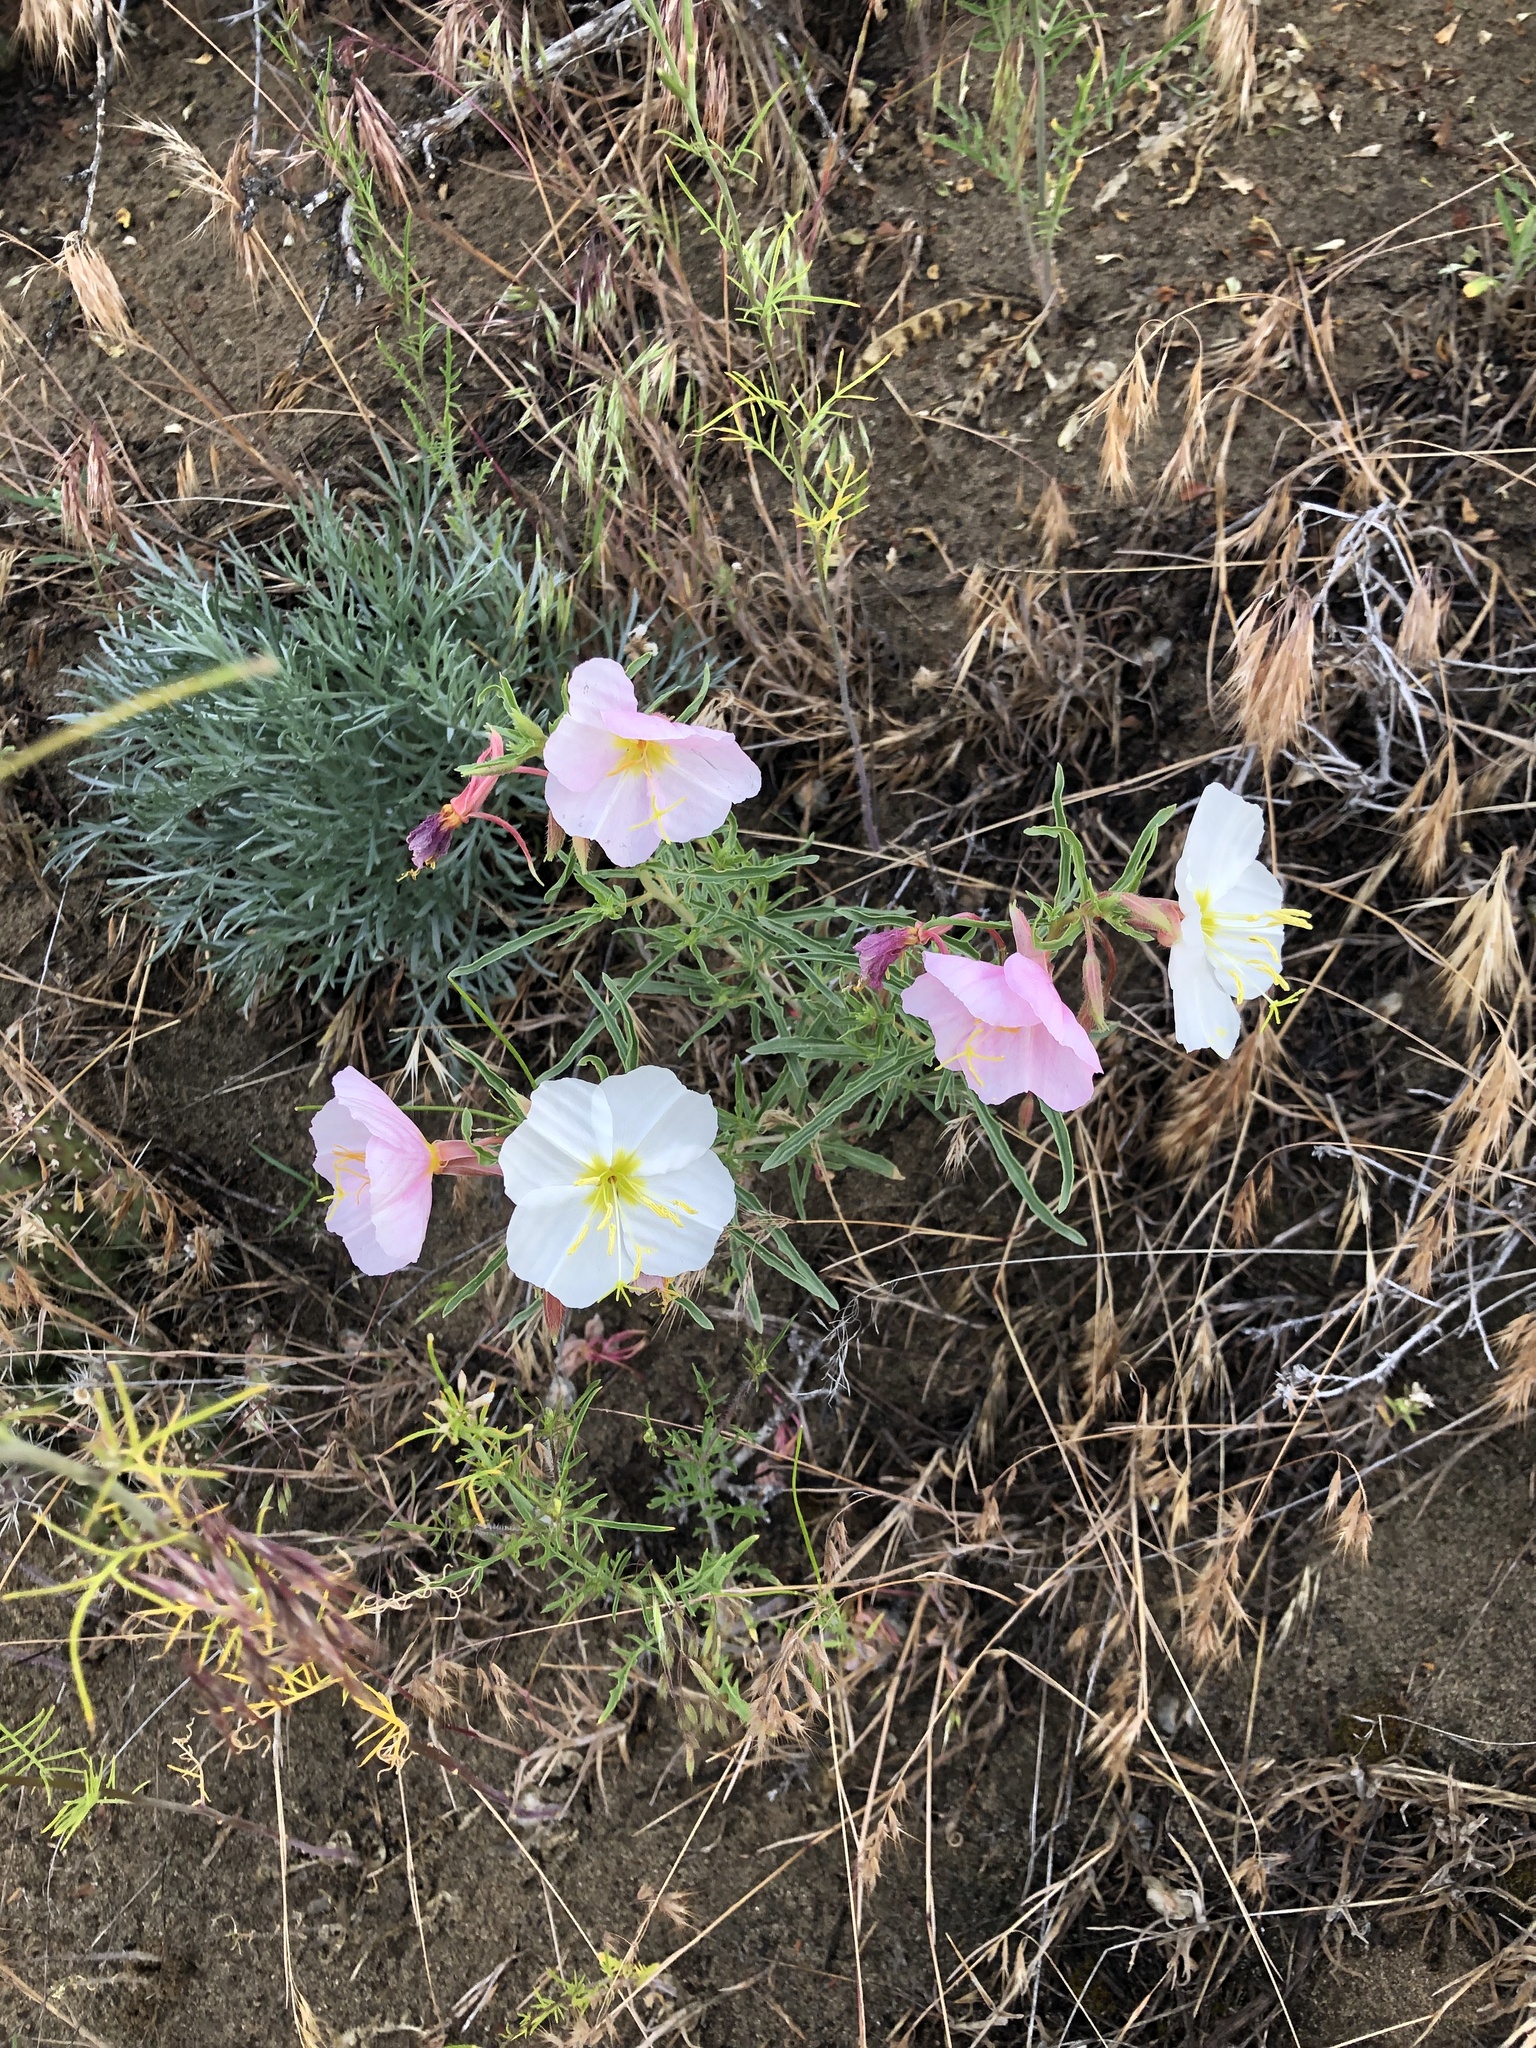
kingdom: Plantae
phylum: Tracheophyta
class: Magnoliopsida
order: Myrtales
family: Onagraceae
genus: Oenothera
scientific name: Oenothera pallida
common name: Pale evening-primrose
